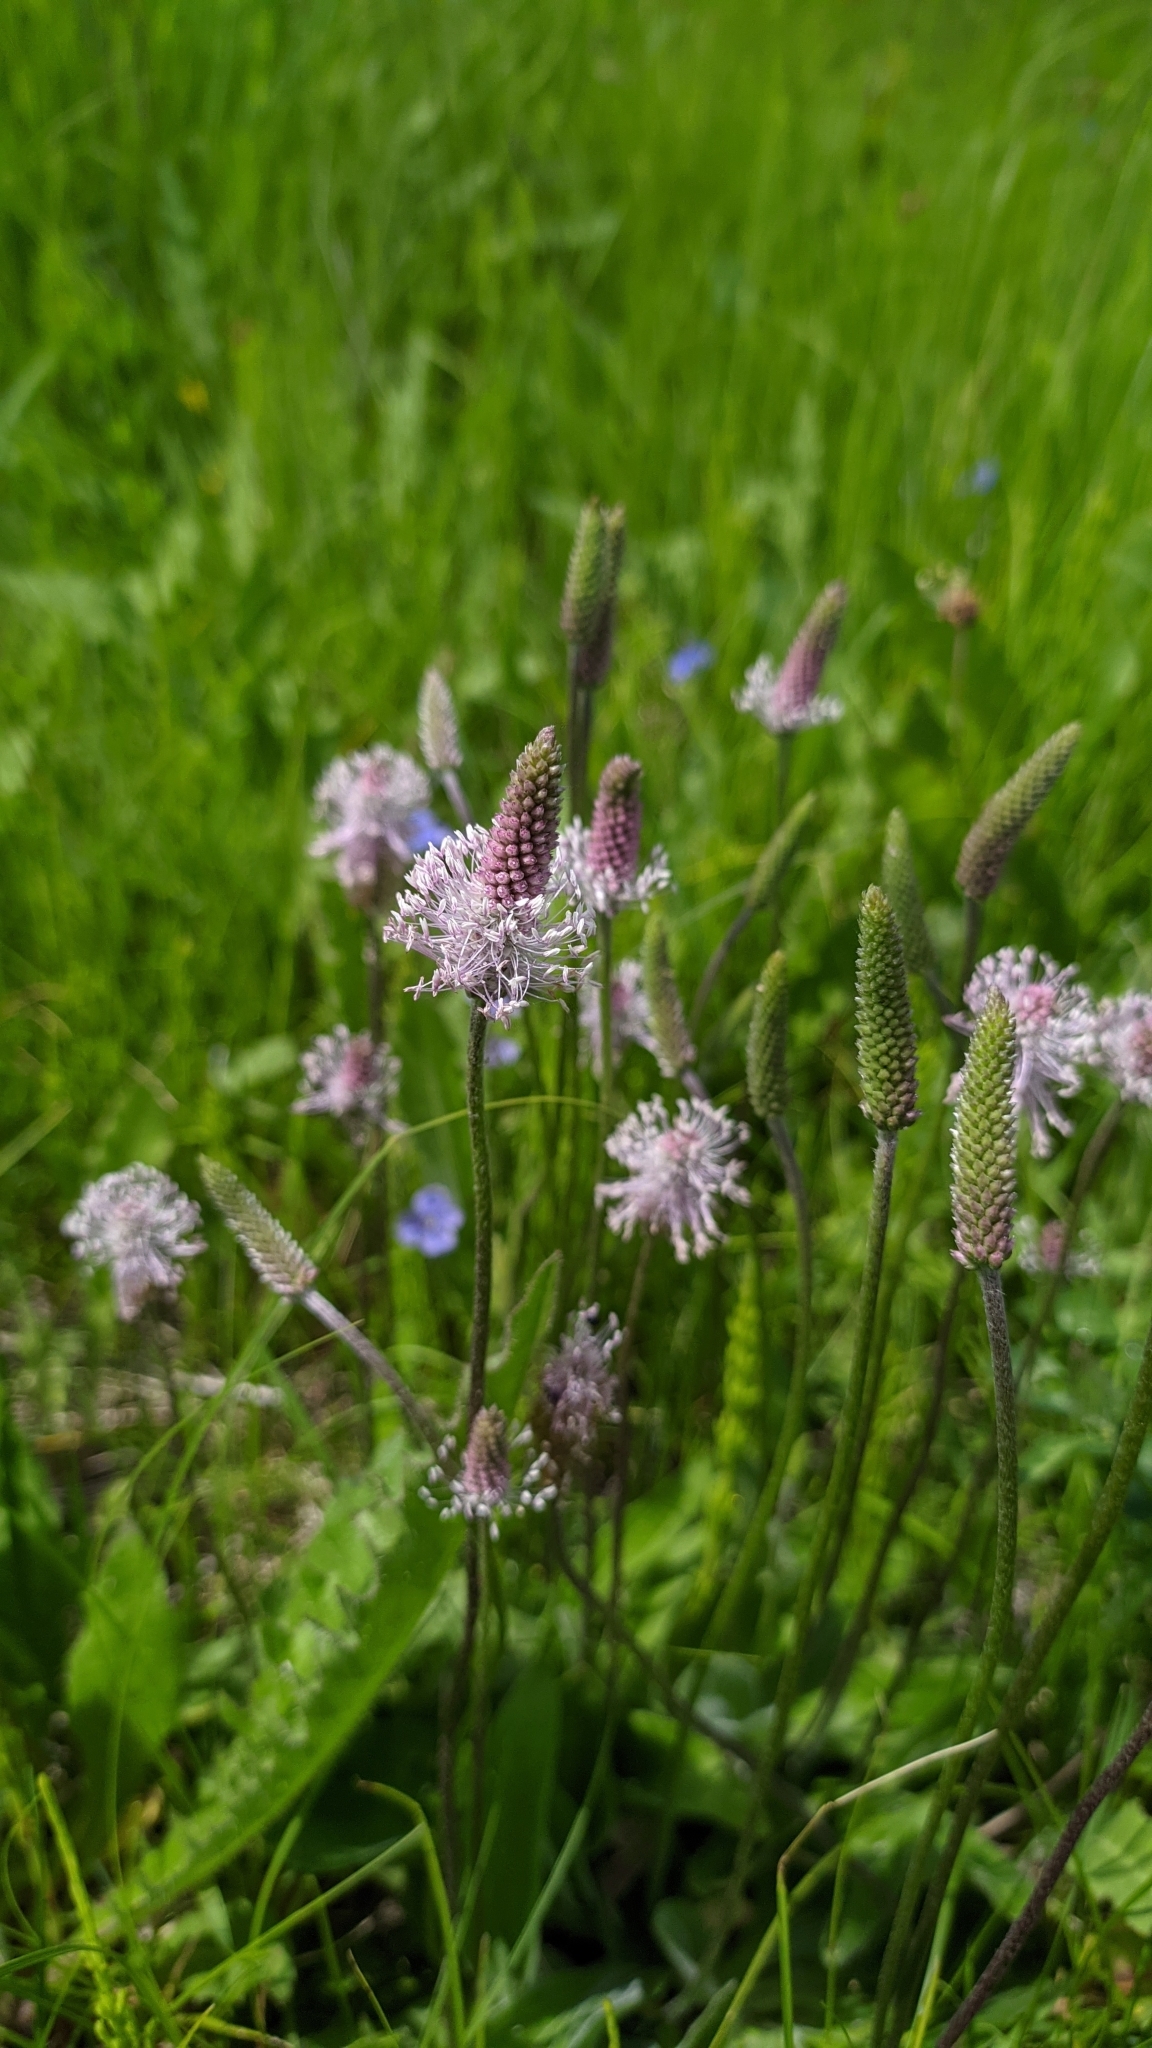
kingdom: Plantae
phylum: Tracheophyta
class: Magnoliopsida
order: Lamiales
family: Plantaginaceae
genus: Plantago
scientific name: Plantago media
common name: Hoary plantain
